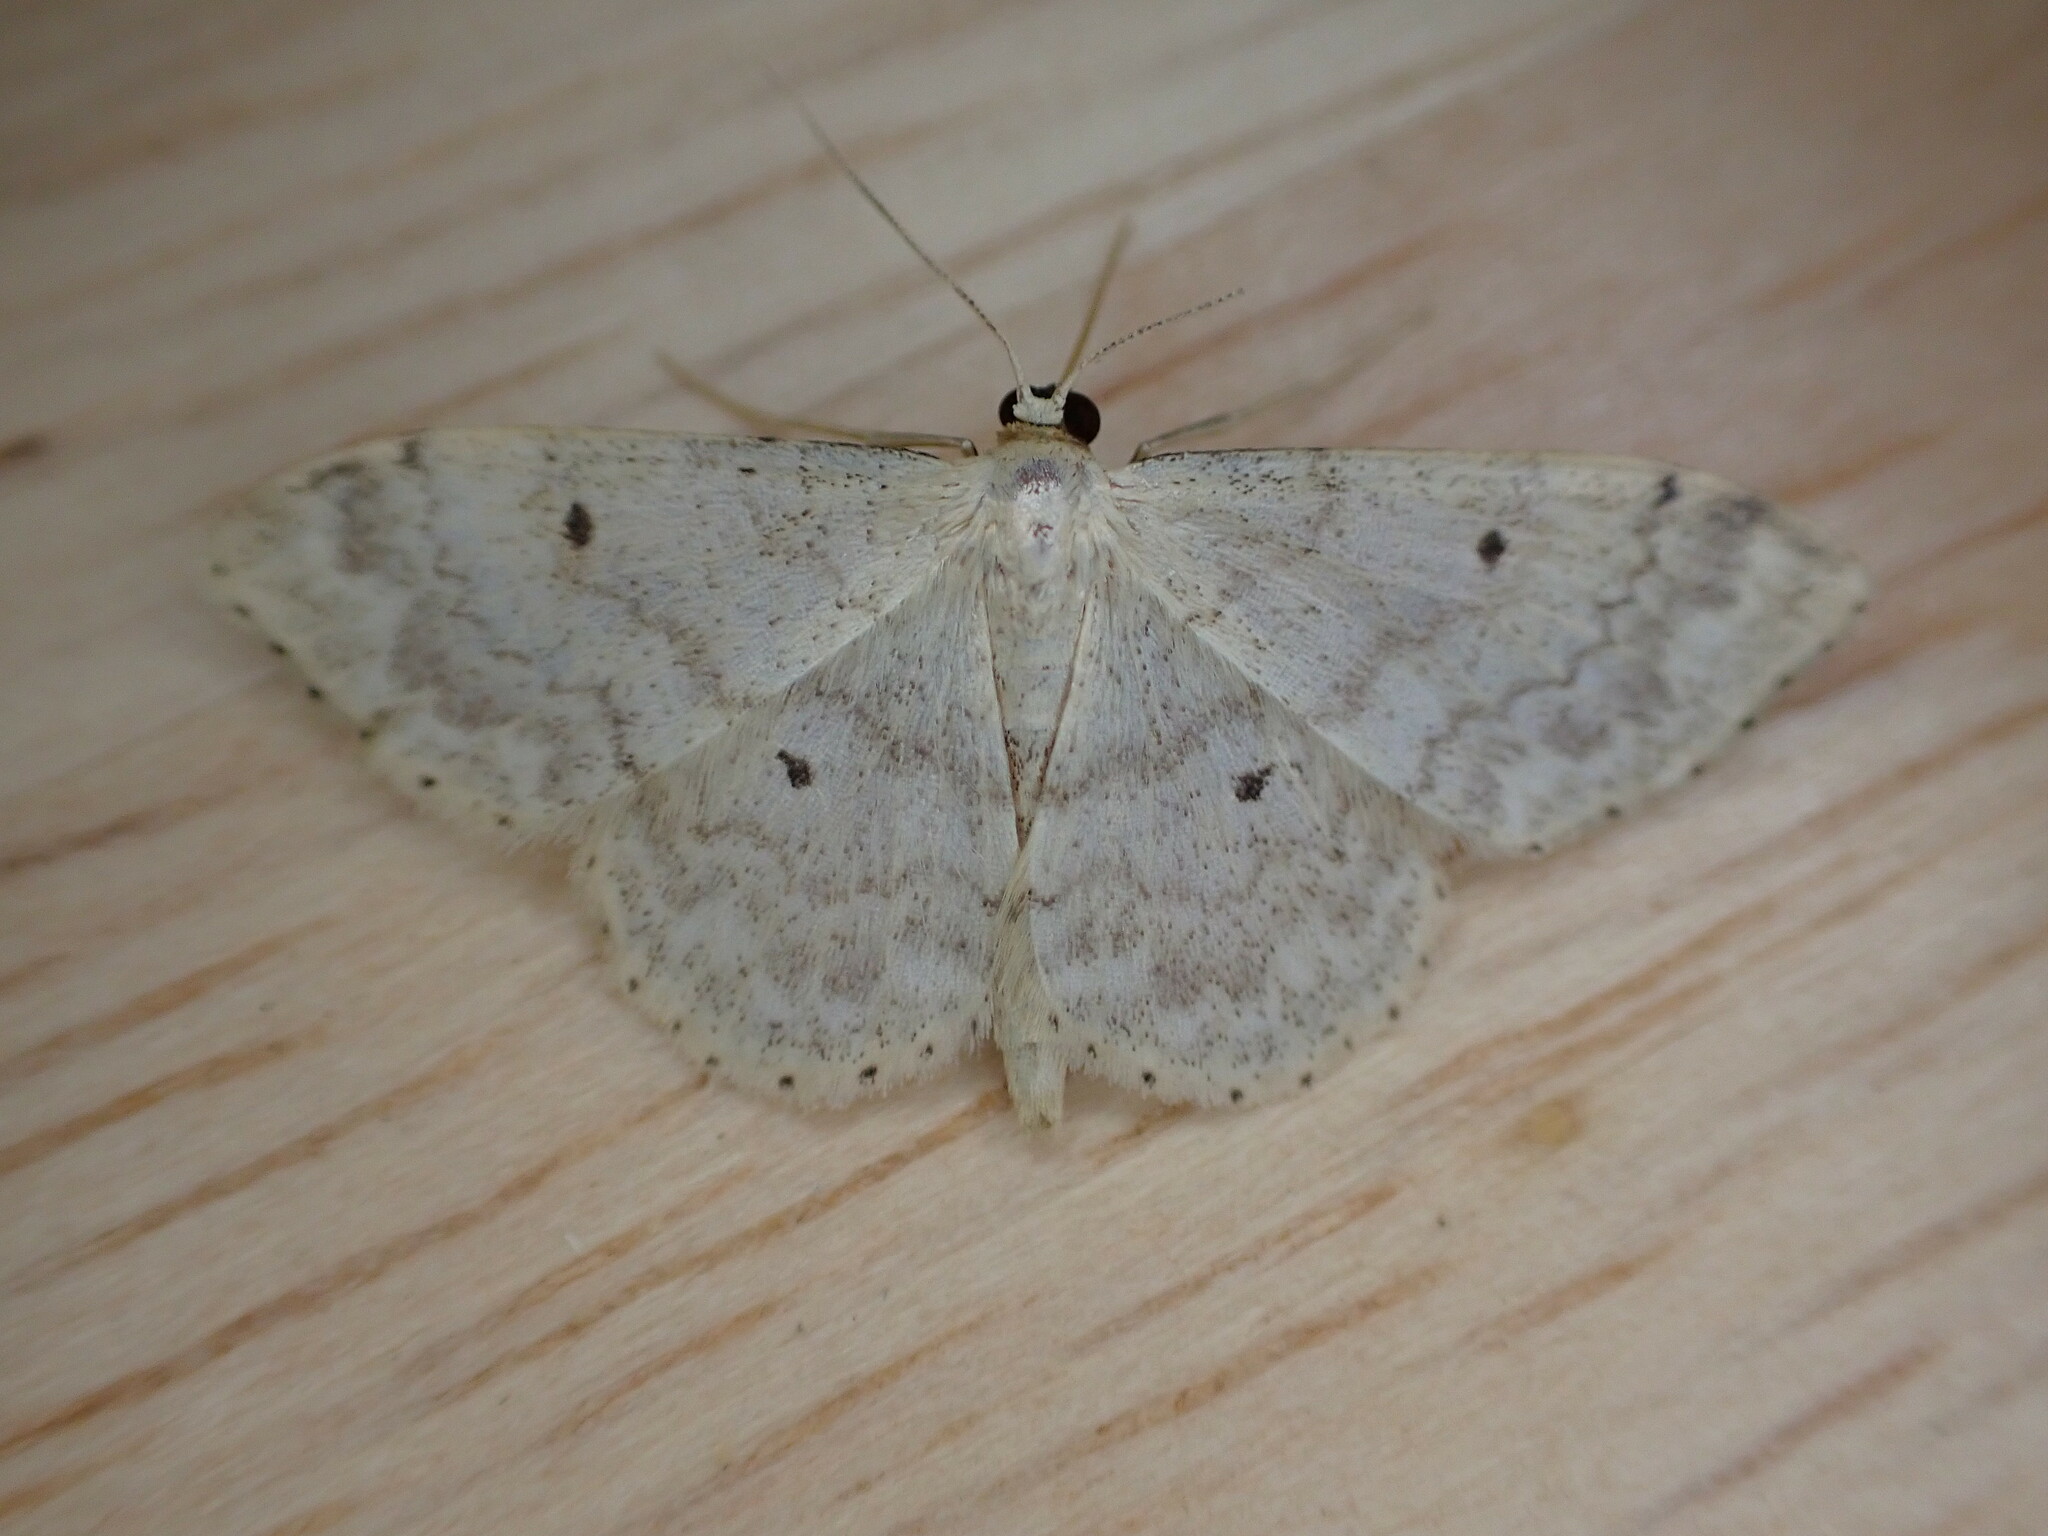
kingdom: Animalia
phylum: Arthropoda
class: Insecta
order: Lepidoptera
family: Geometridae
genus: Idaea
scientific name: Idaea biselata
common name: Small fan-footed wave
